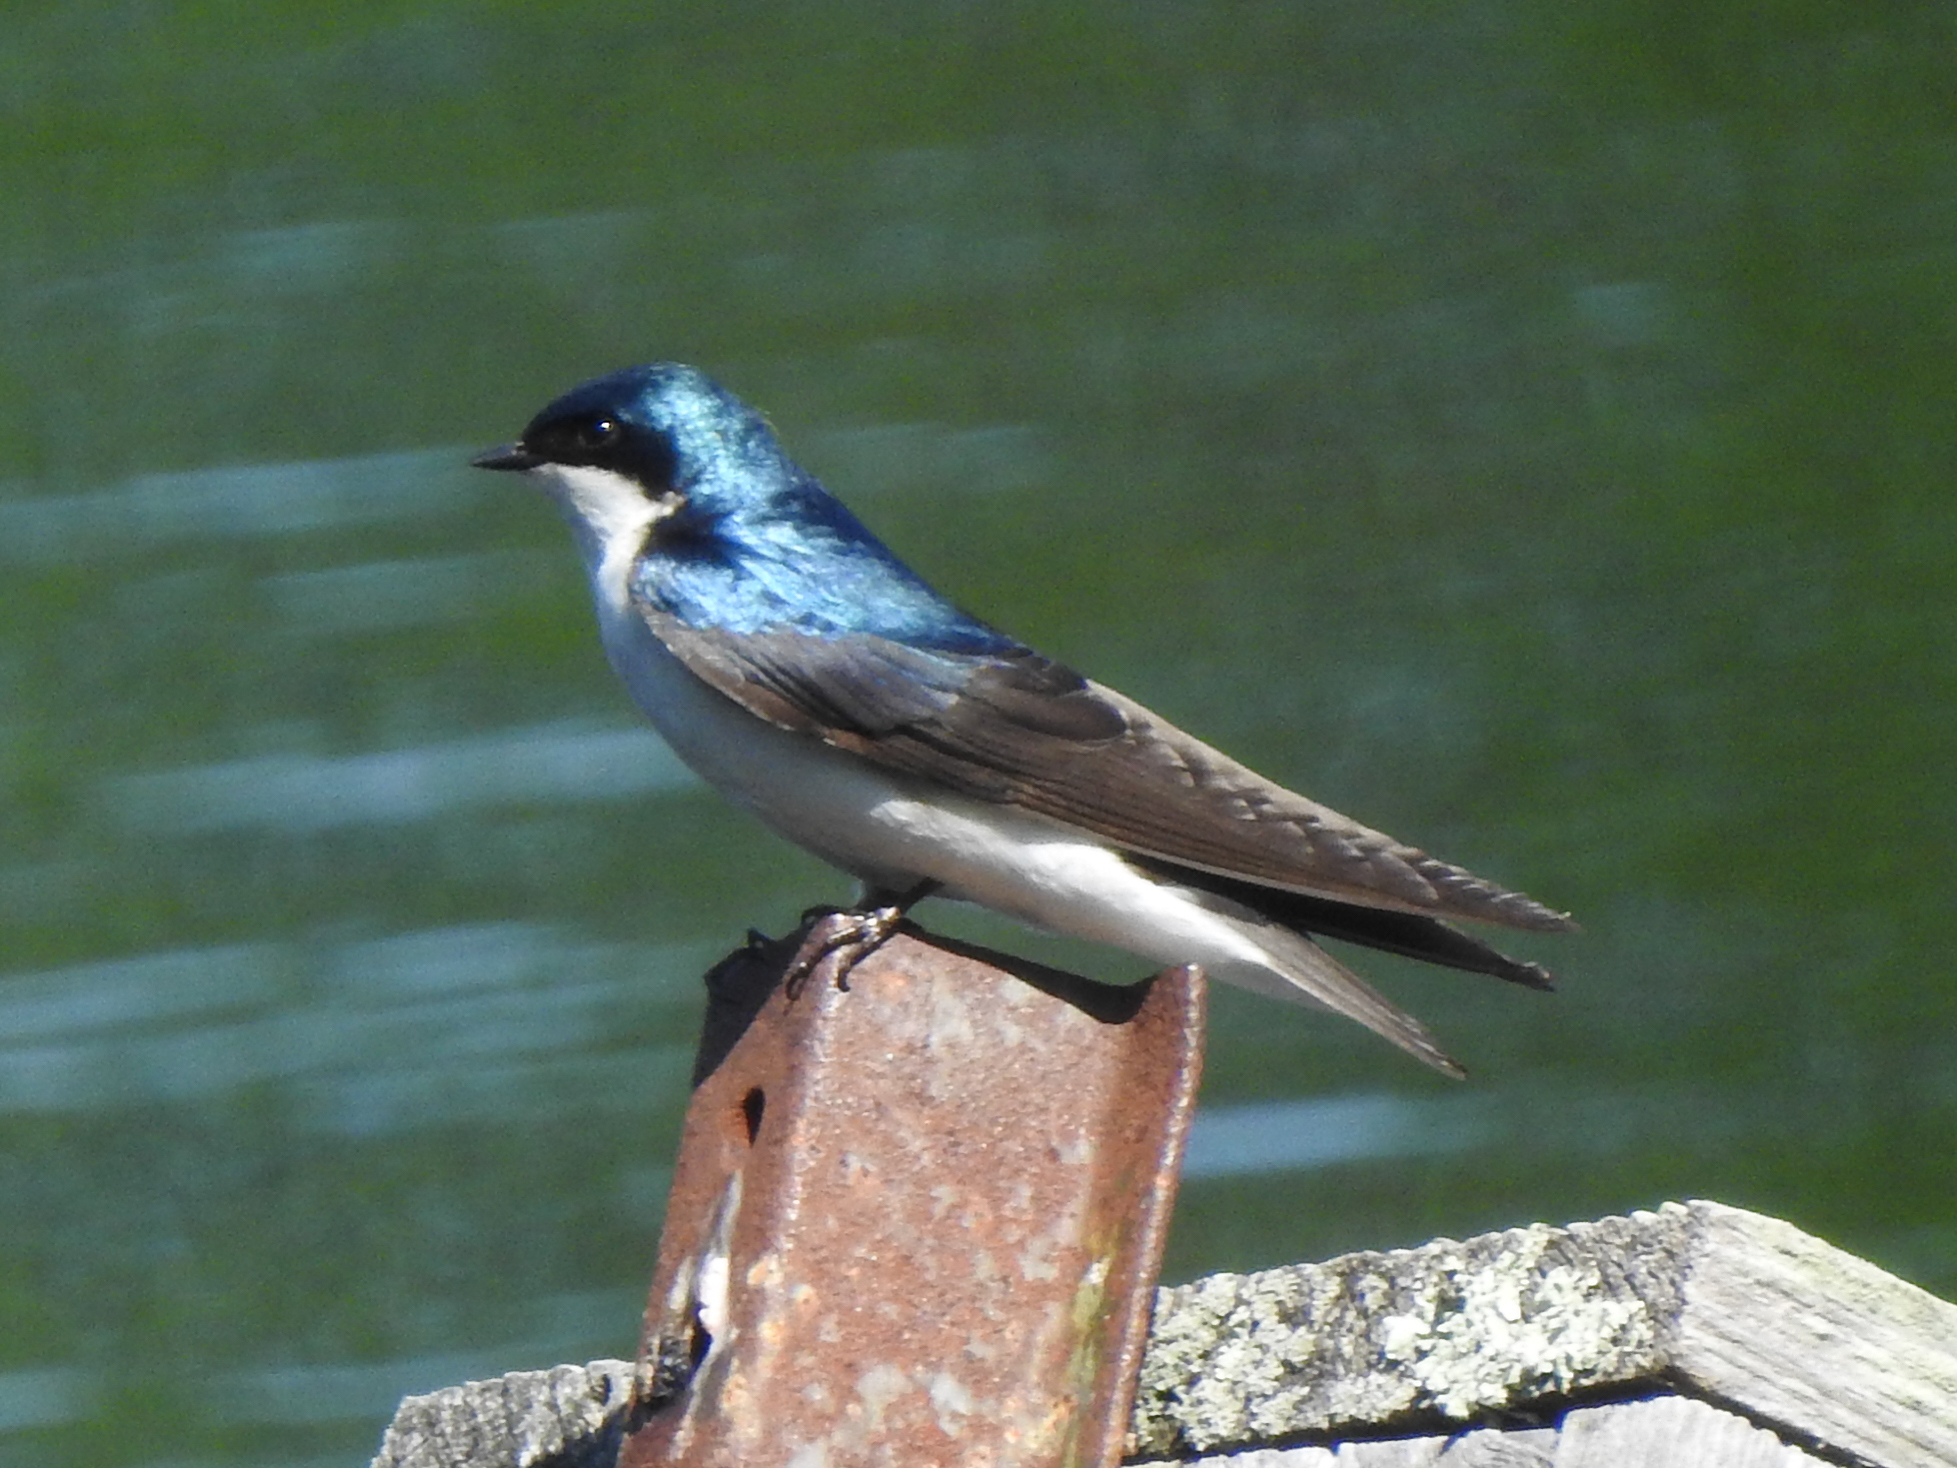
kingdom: Animalia
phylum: Chordata
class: Aves
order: Passeriformes
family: Hirundinidae
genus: Tachycineta
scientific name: Tachycineta bicolor
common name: Tree swallow
